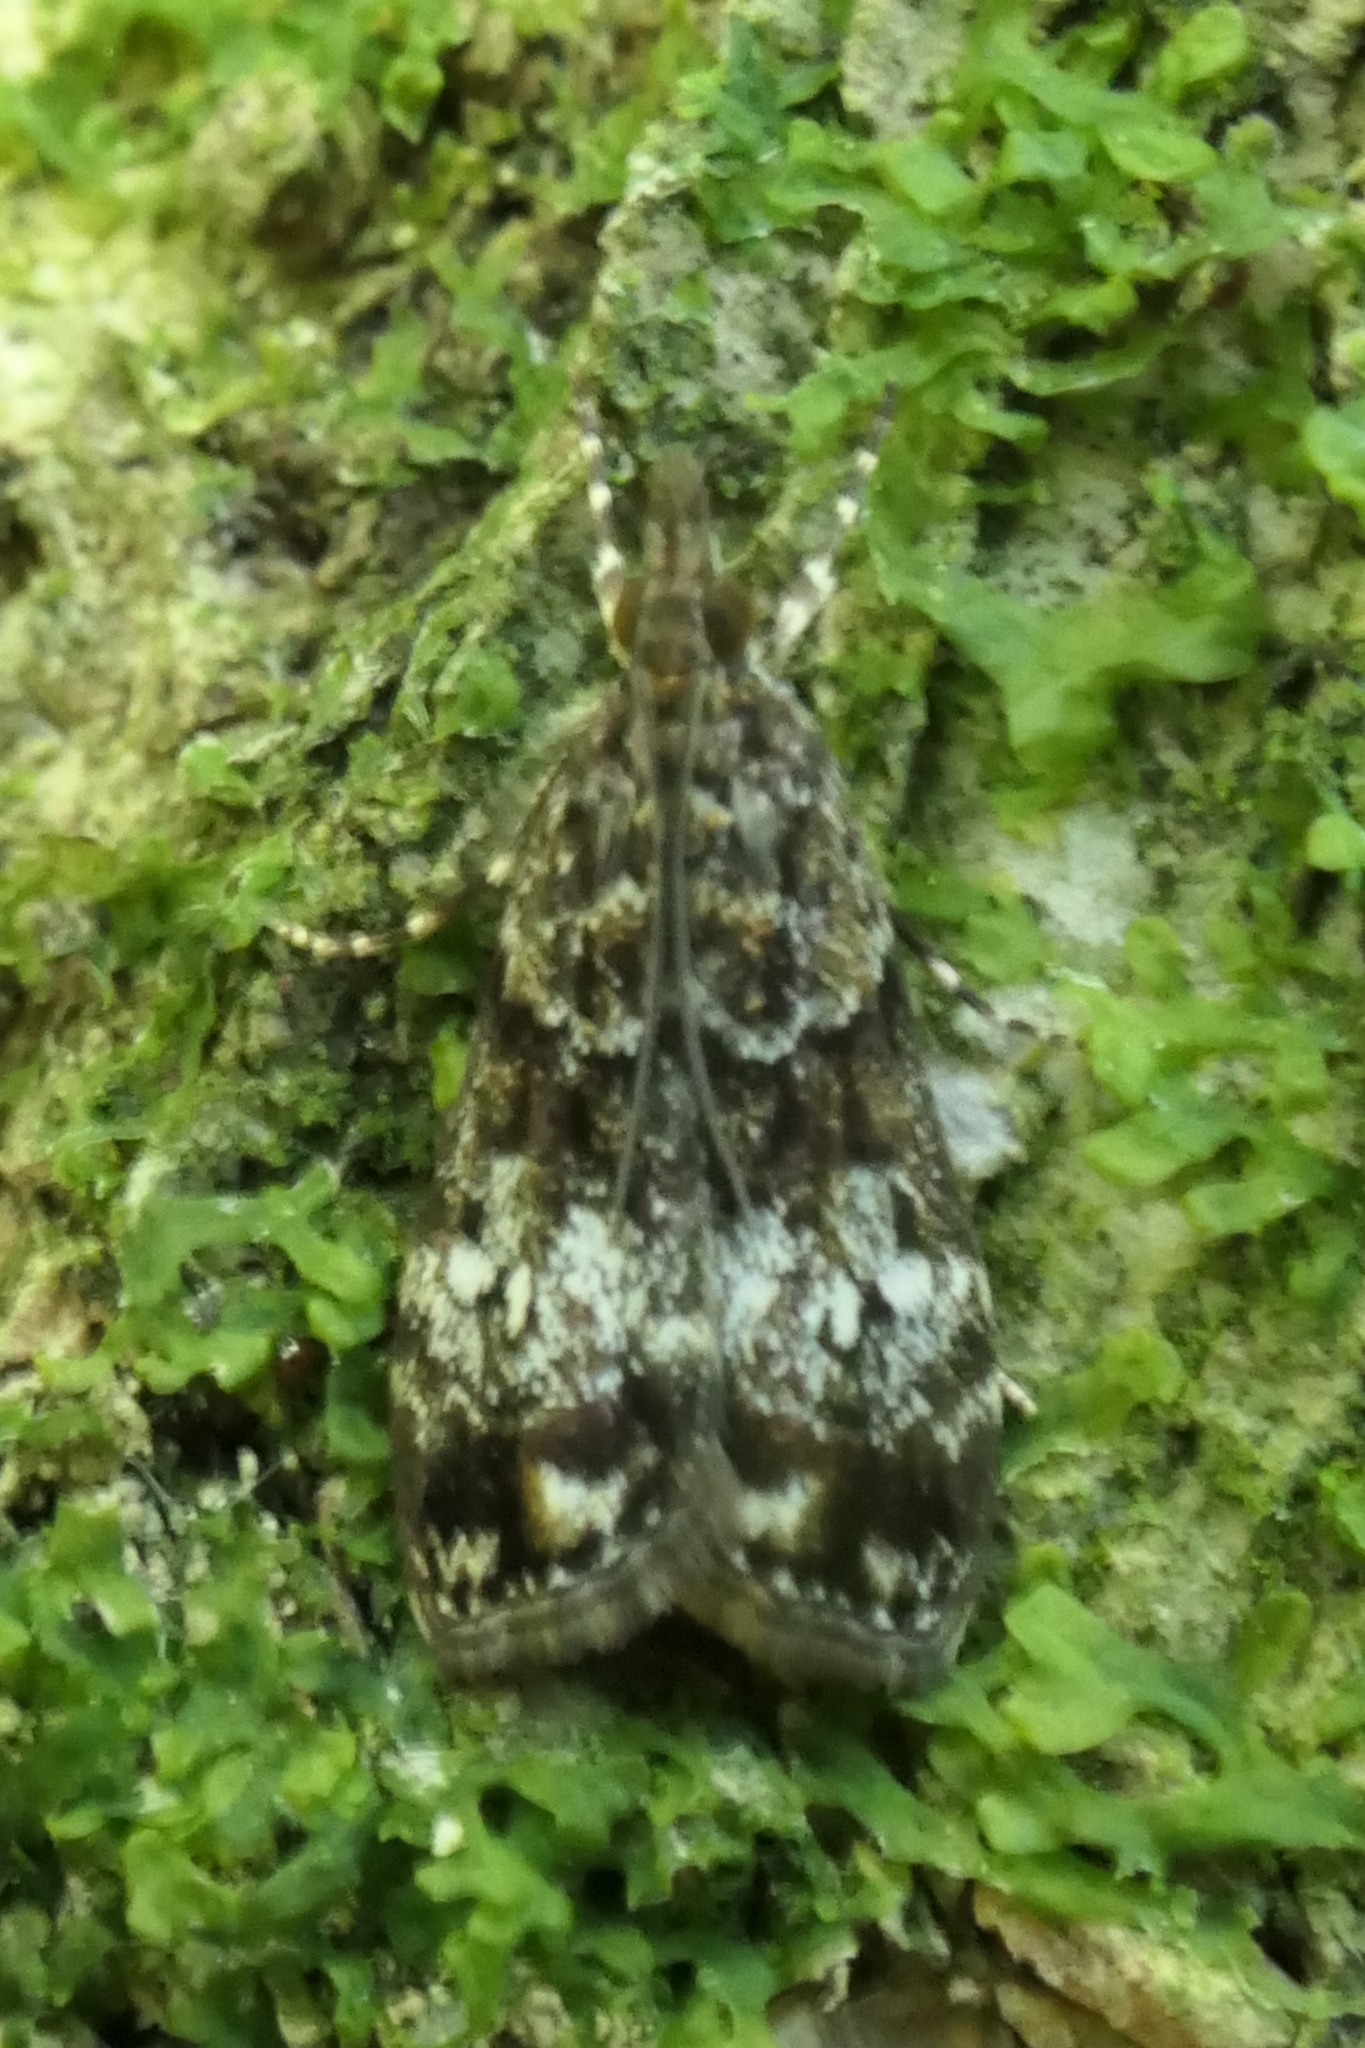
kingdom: Animalia
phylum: Arthropoda
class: Insecta
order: Lepidoptera
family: Crambidae
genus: Eudonia
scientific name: Eudonia minualis
